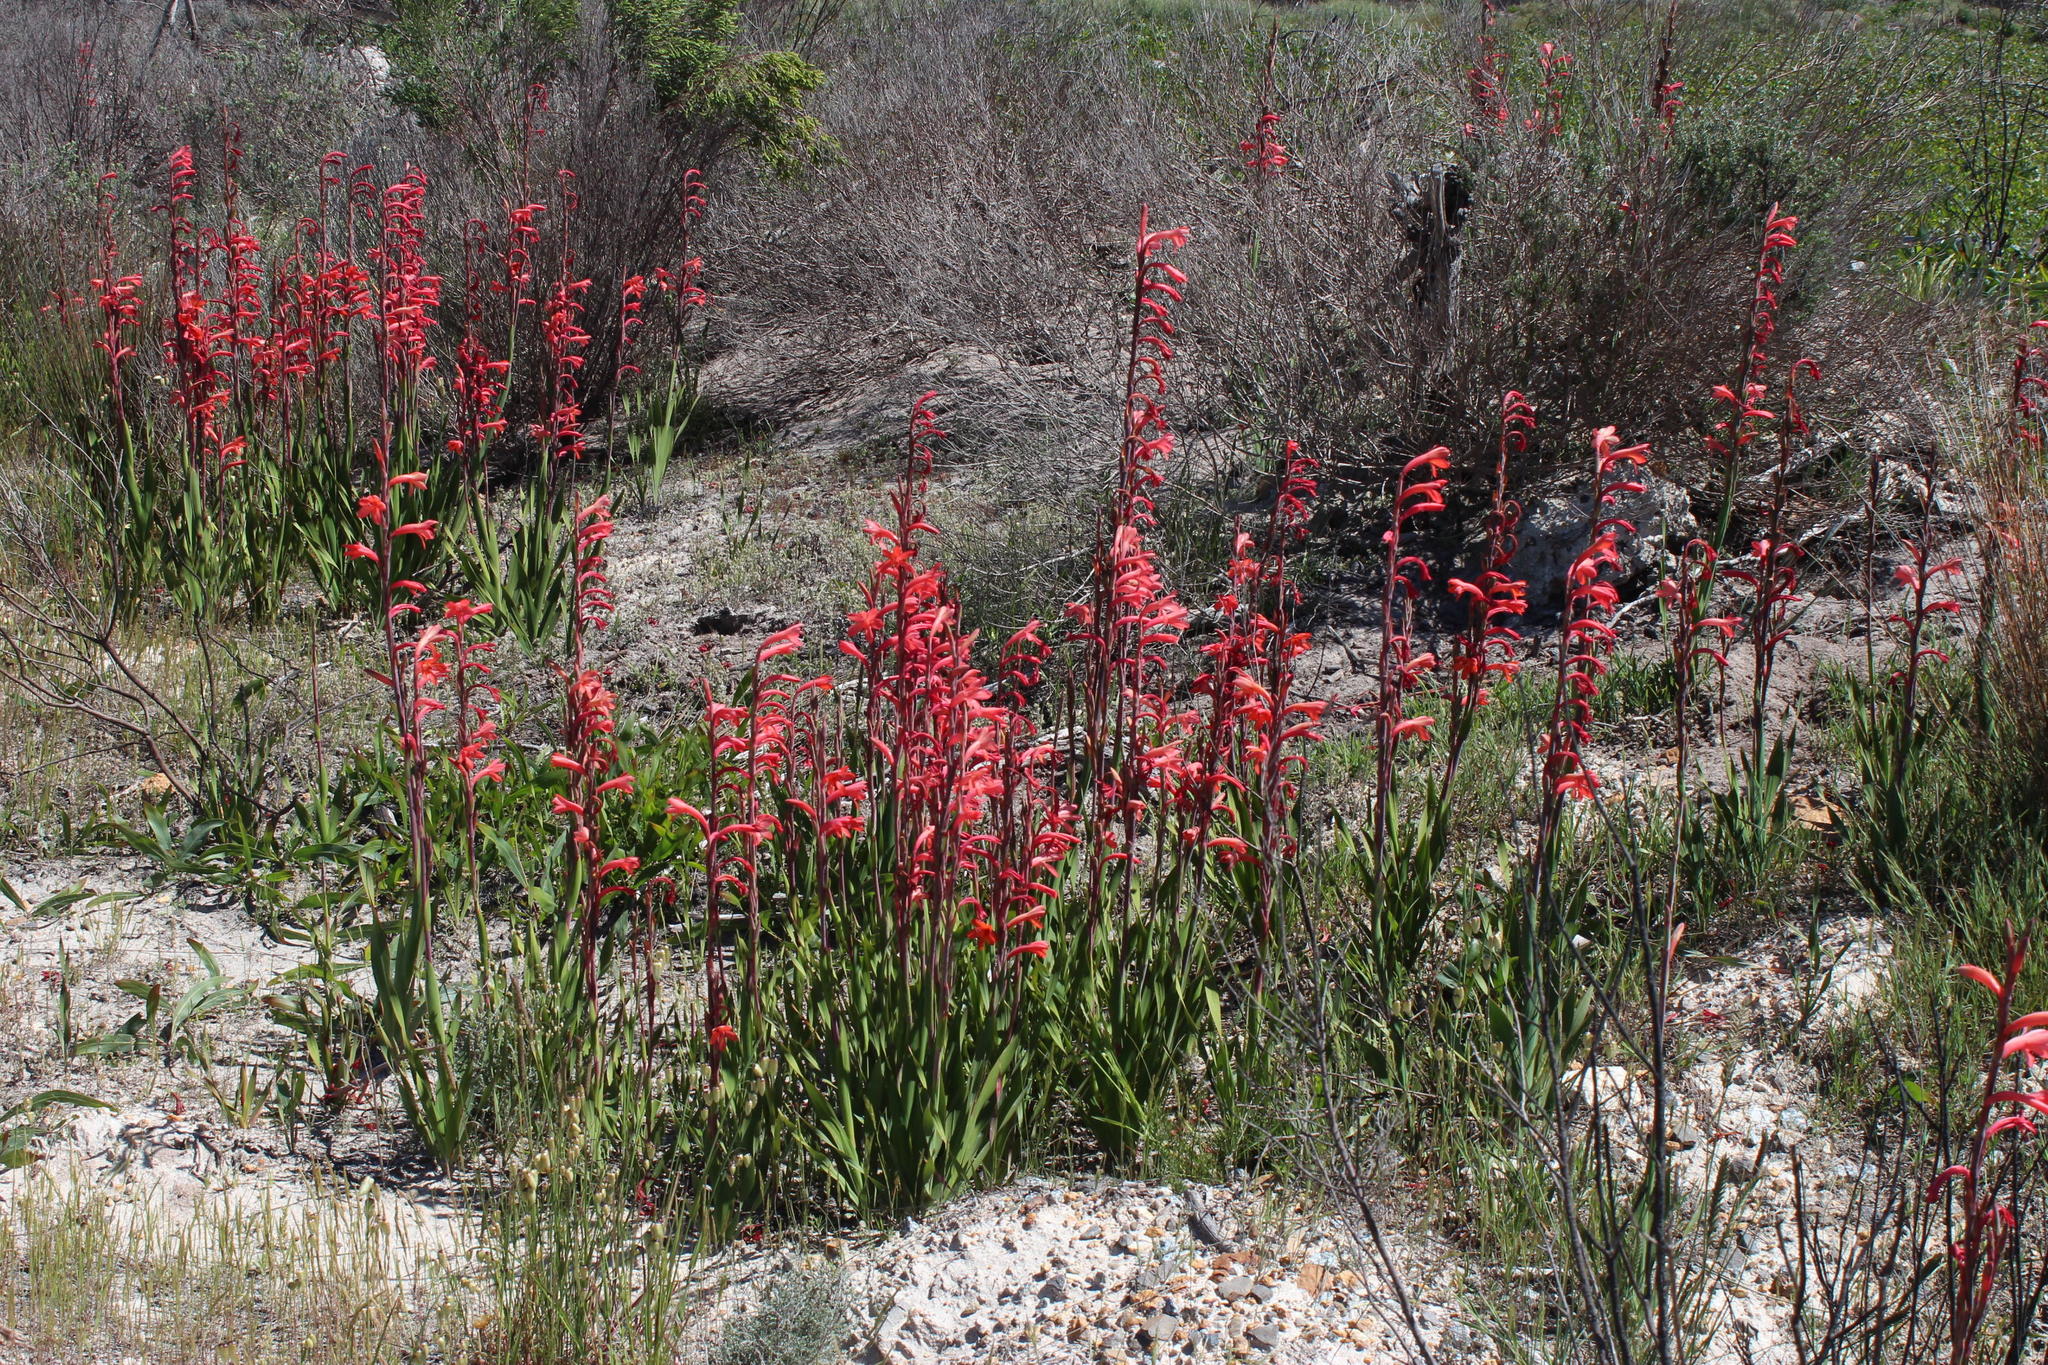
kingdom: Plantae
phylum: Tracheophyta
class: Liliopsida
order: Asparagales
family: Iridaceae
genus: Watsonia
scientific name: Watsonia meriana
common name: Bulbil bugle-lily
